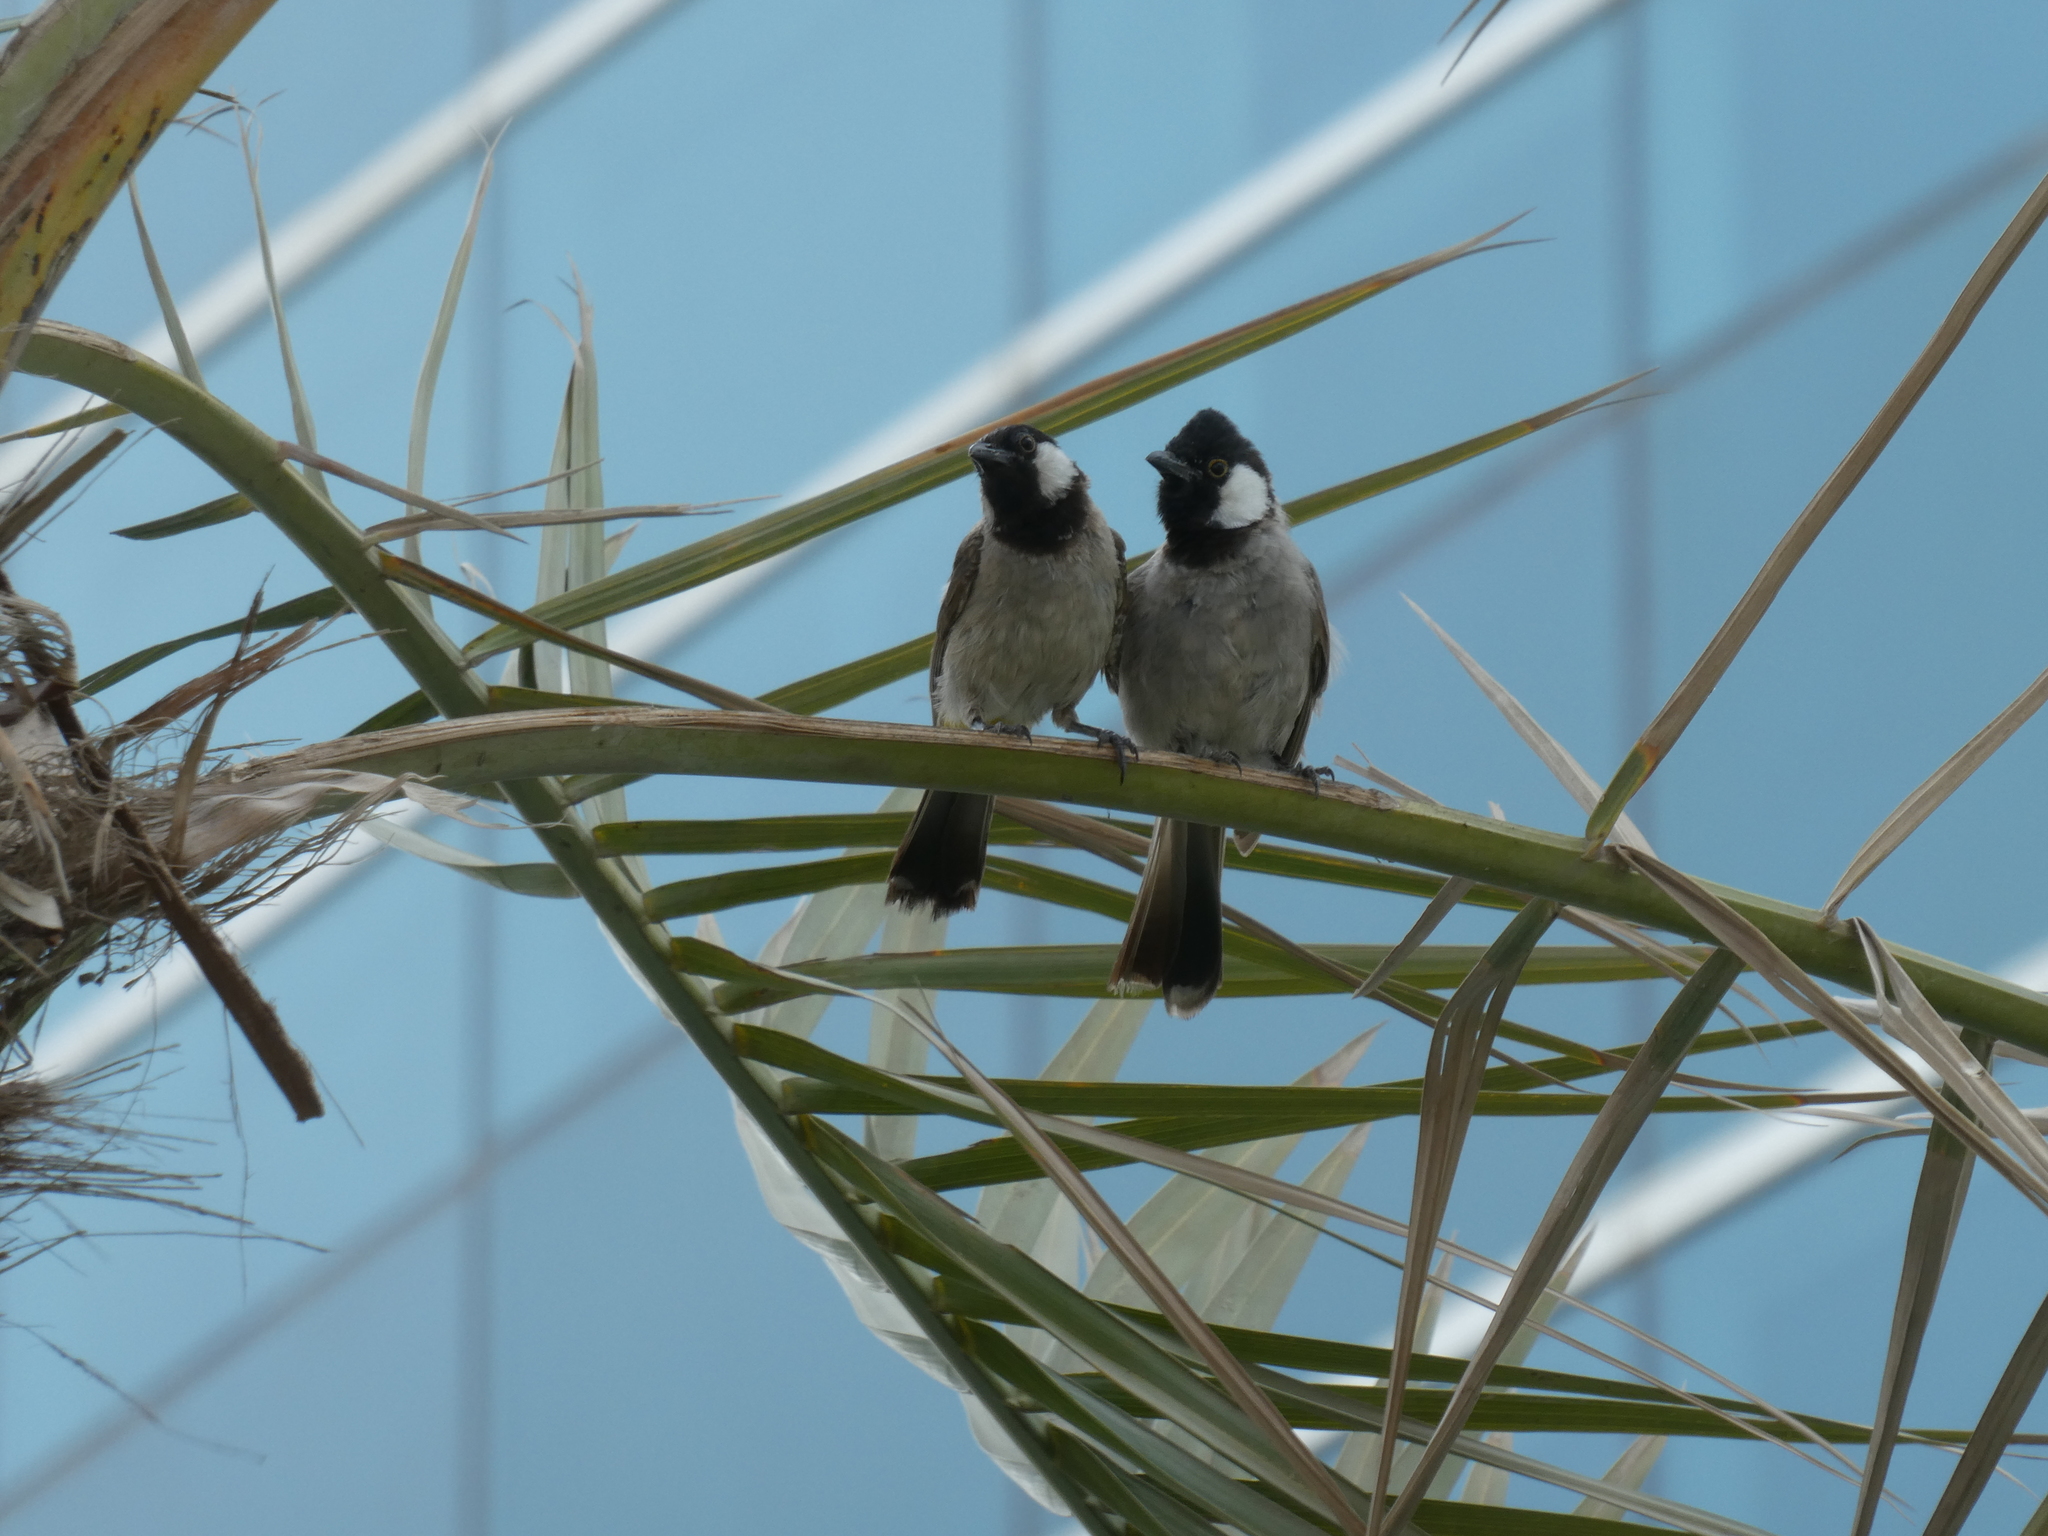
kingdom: Animalia
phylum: Chordata
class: Aves
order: Passeriformes
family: Pycnonotidae
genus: Pycnonotus
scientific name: Pycnonotus leucotis
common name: White-eared bulbul
